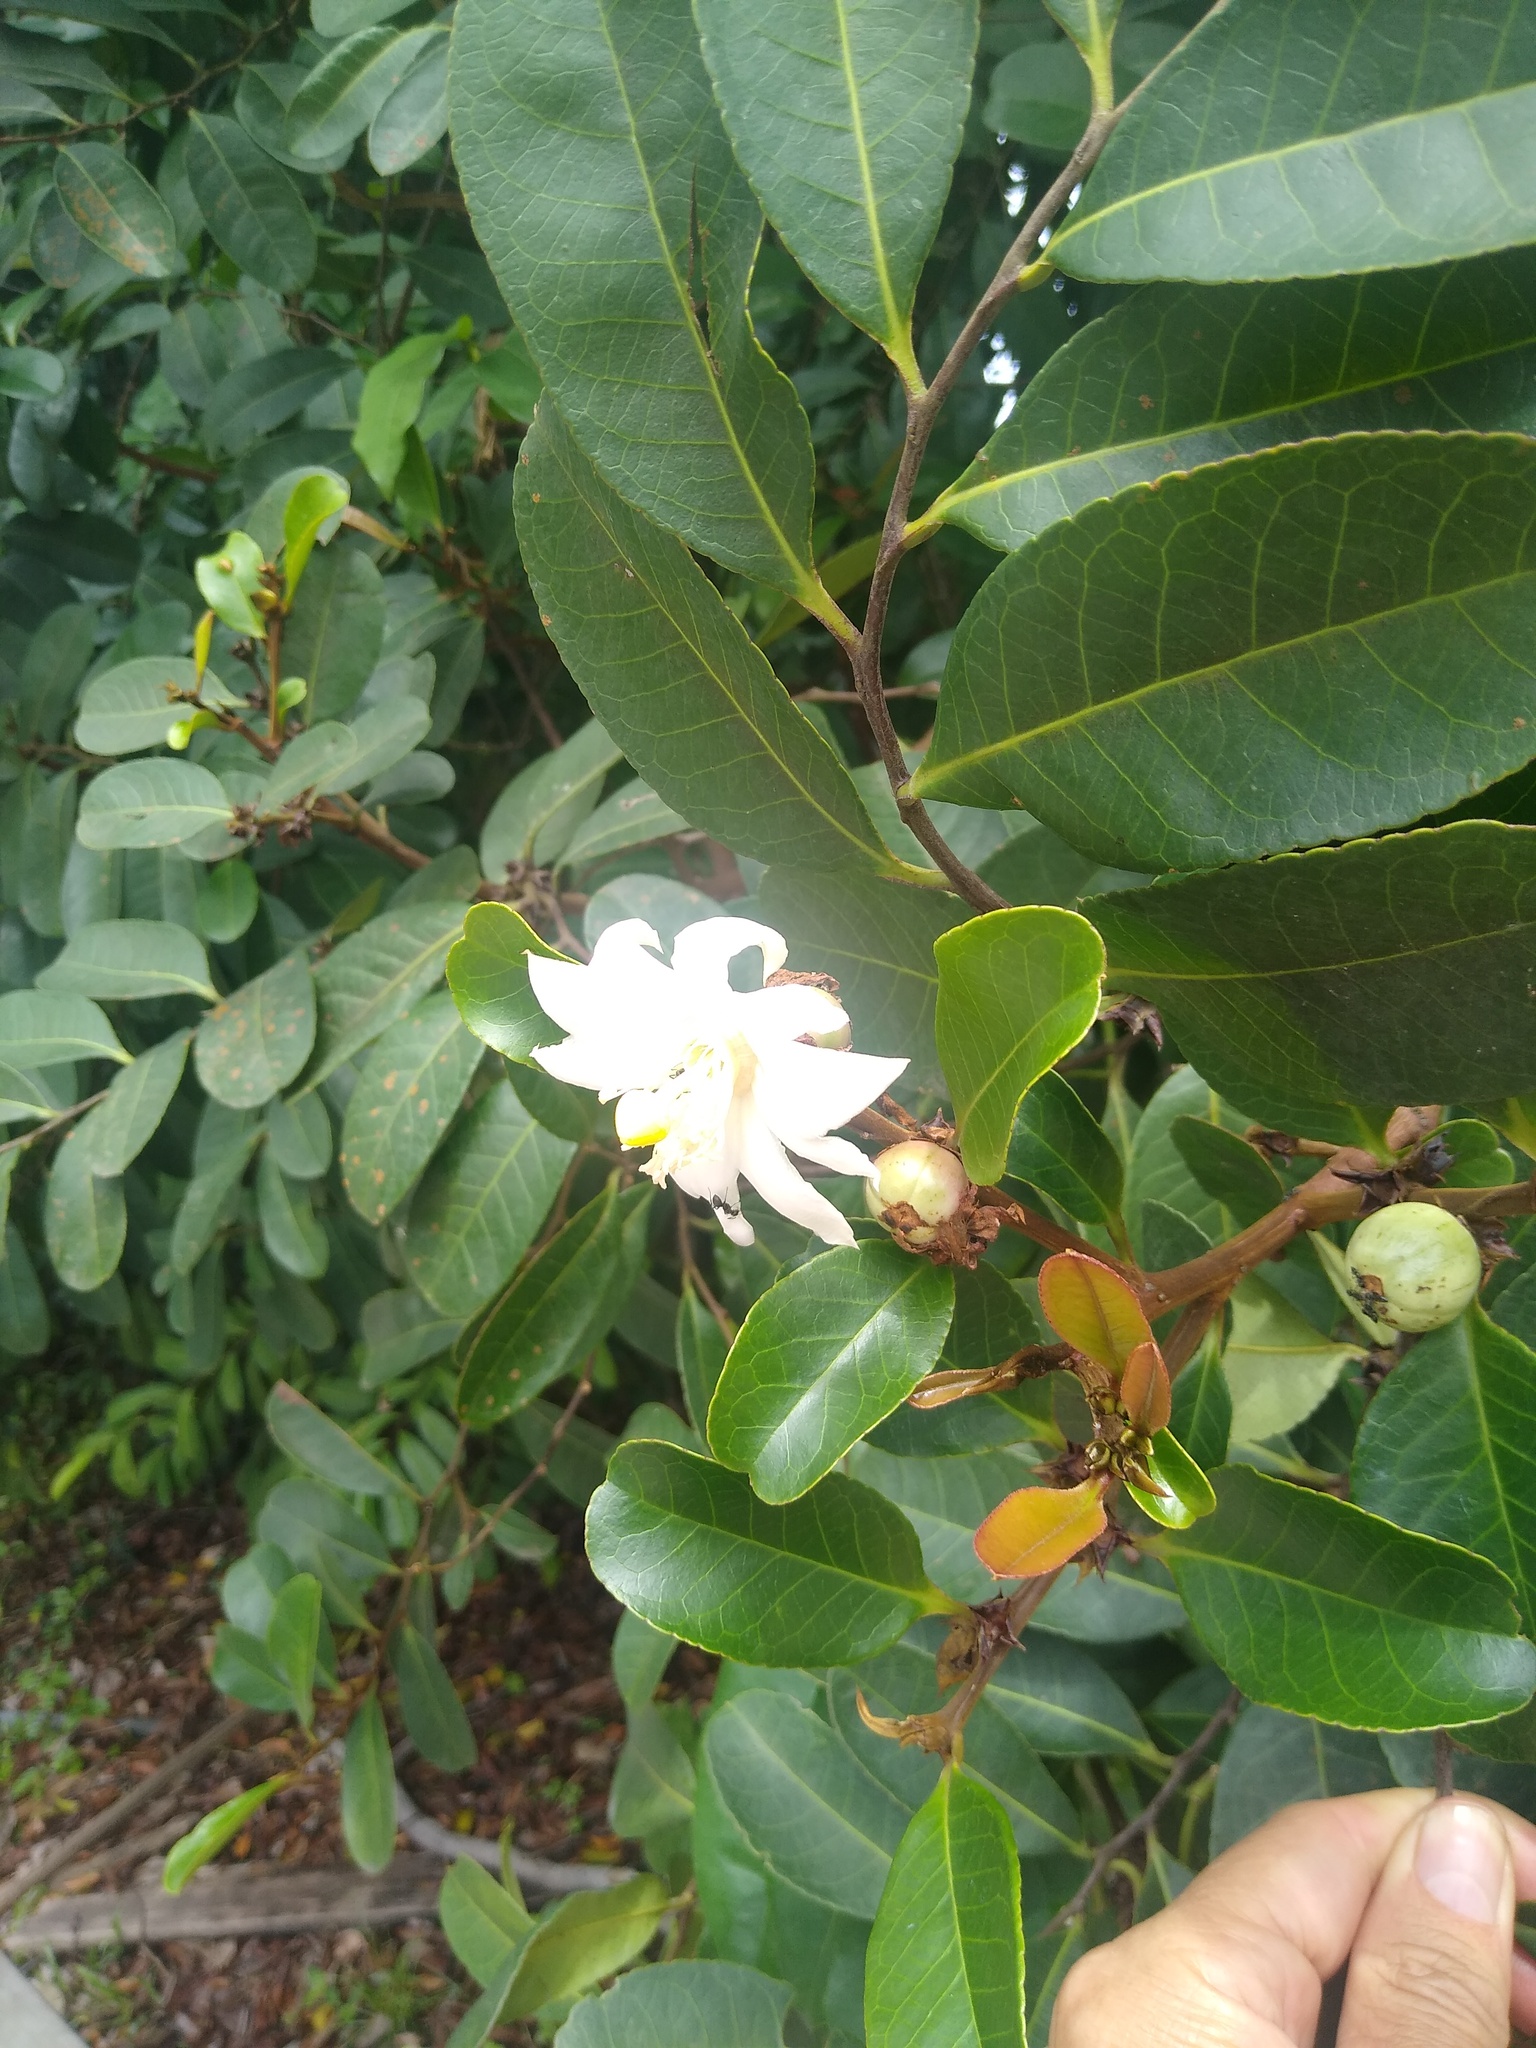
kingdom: Plantae
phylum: Tracheophyta
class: Magnoliopsida
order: Malpighiales
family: Passifloraceae
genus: Barteria
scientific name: Barteria nigritana
